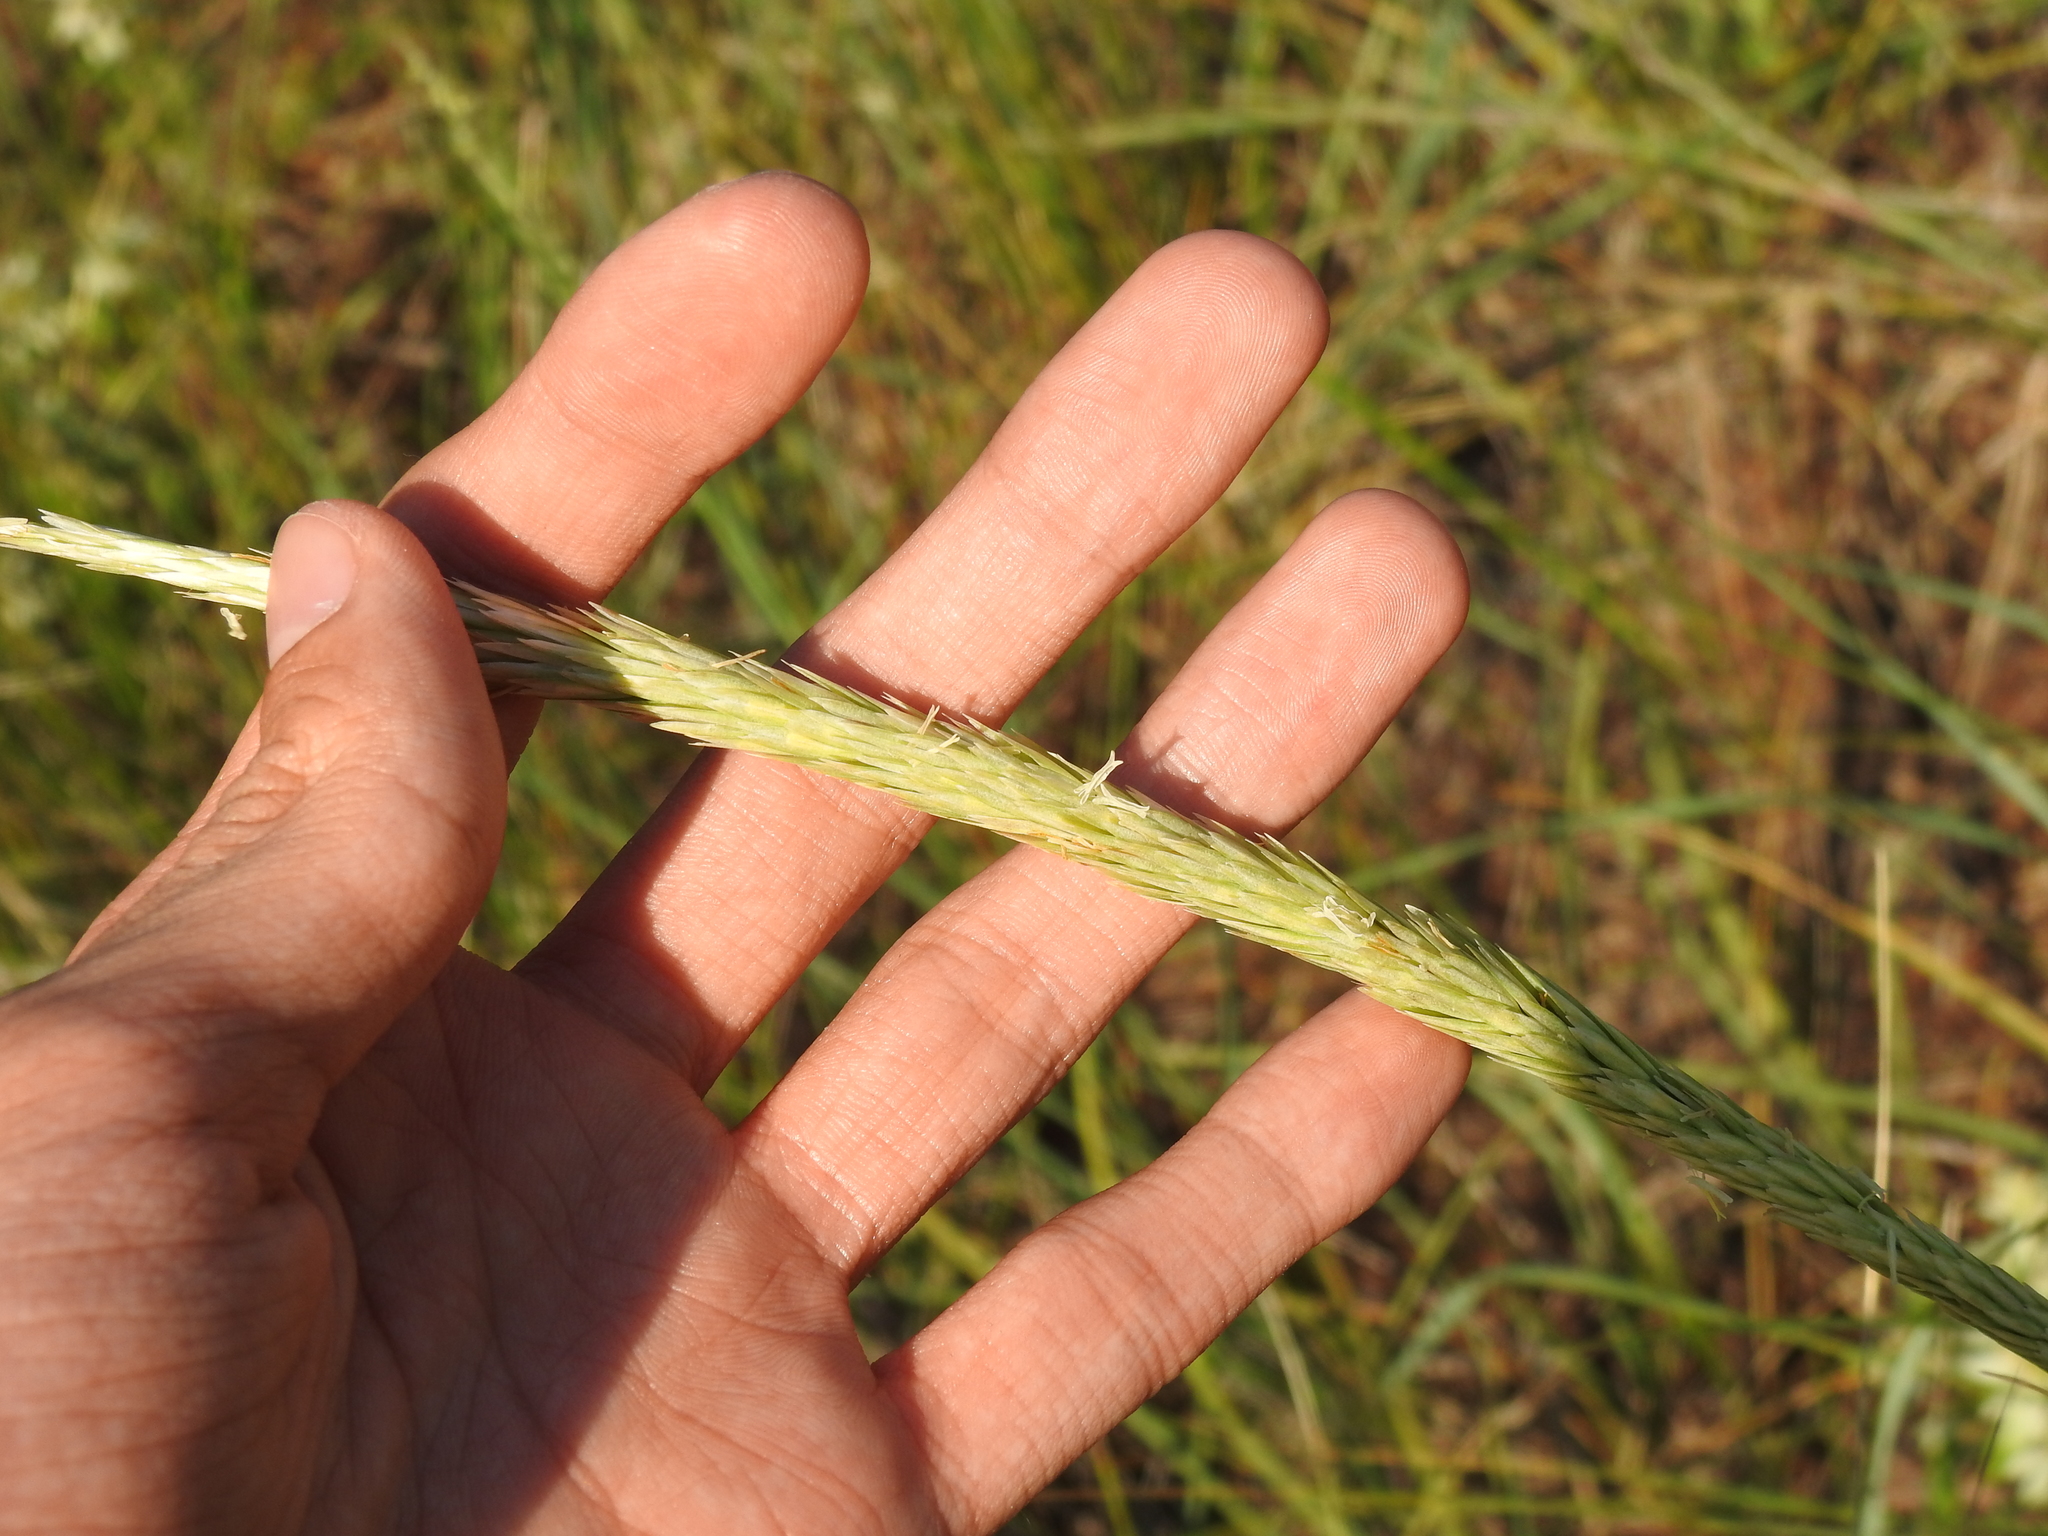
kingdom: Plantae
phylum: Tracheophyta
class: Liliopsida
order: Poales
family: Poaceae
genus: Calamagrostis
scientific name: Calamagrostis breviligulata
